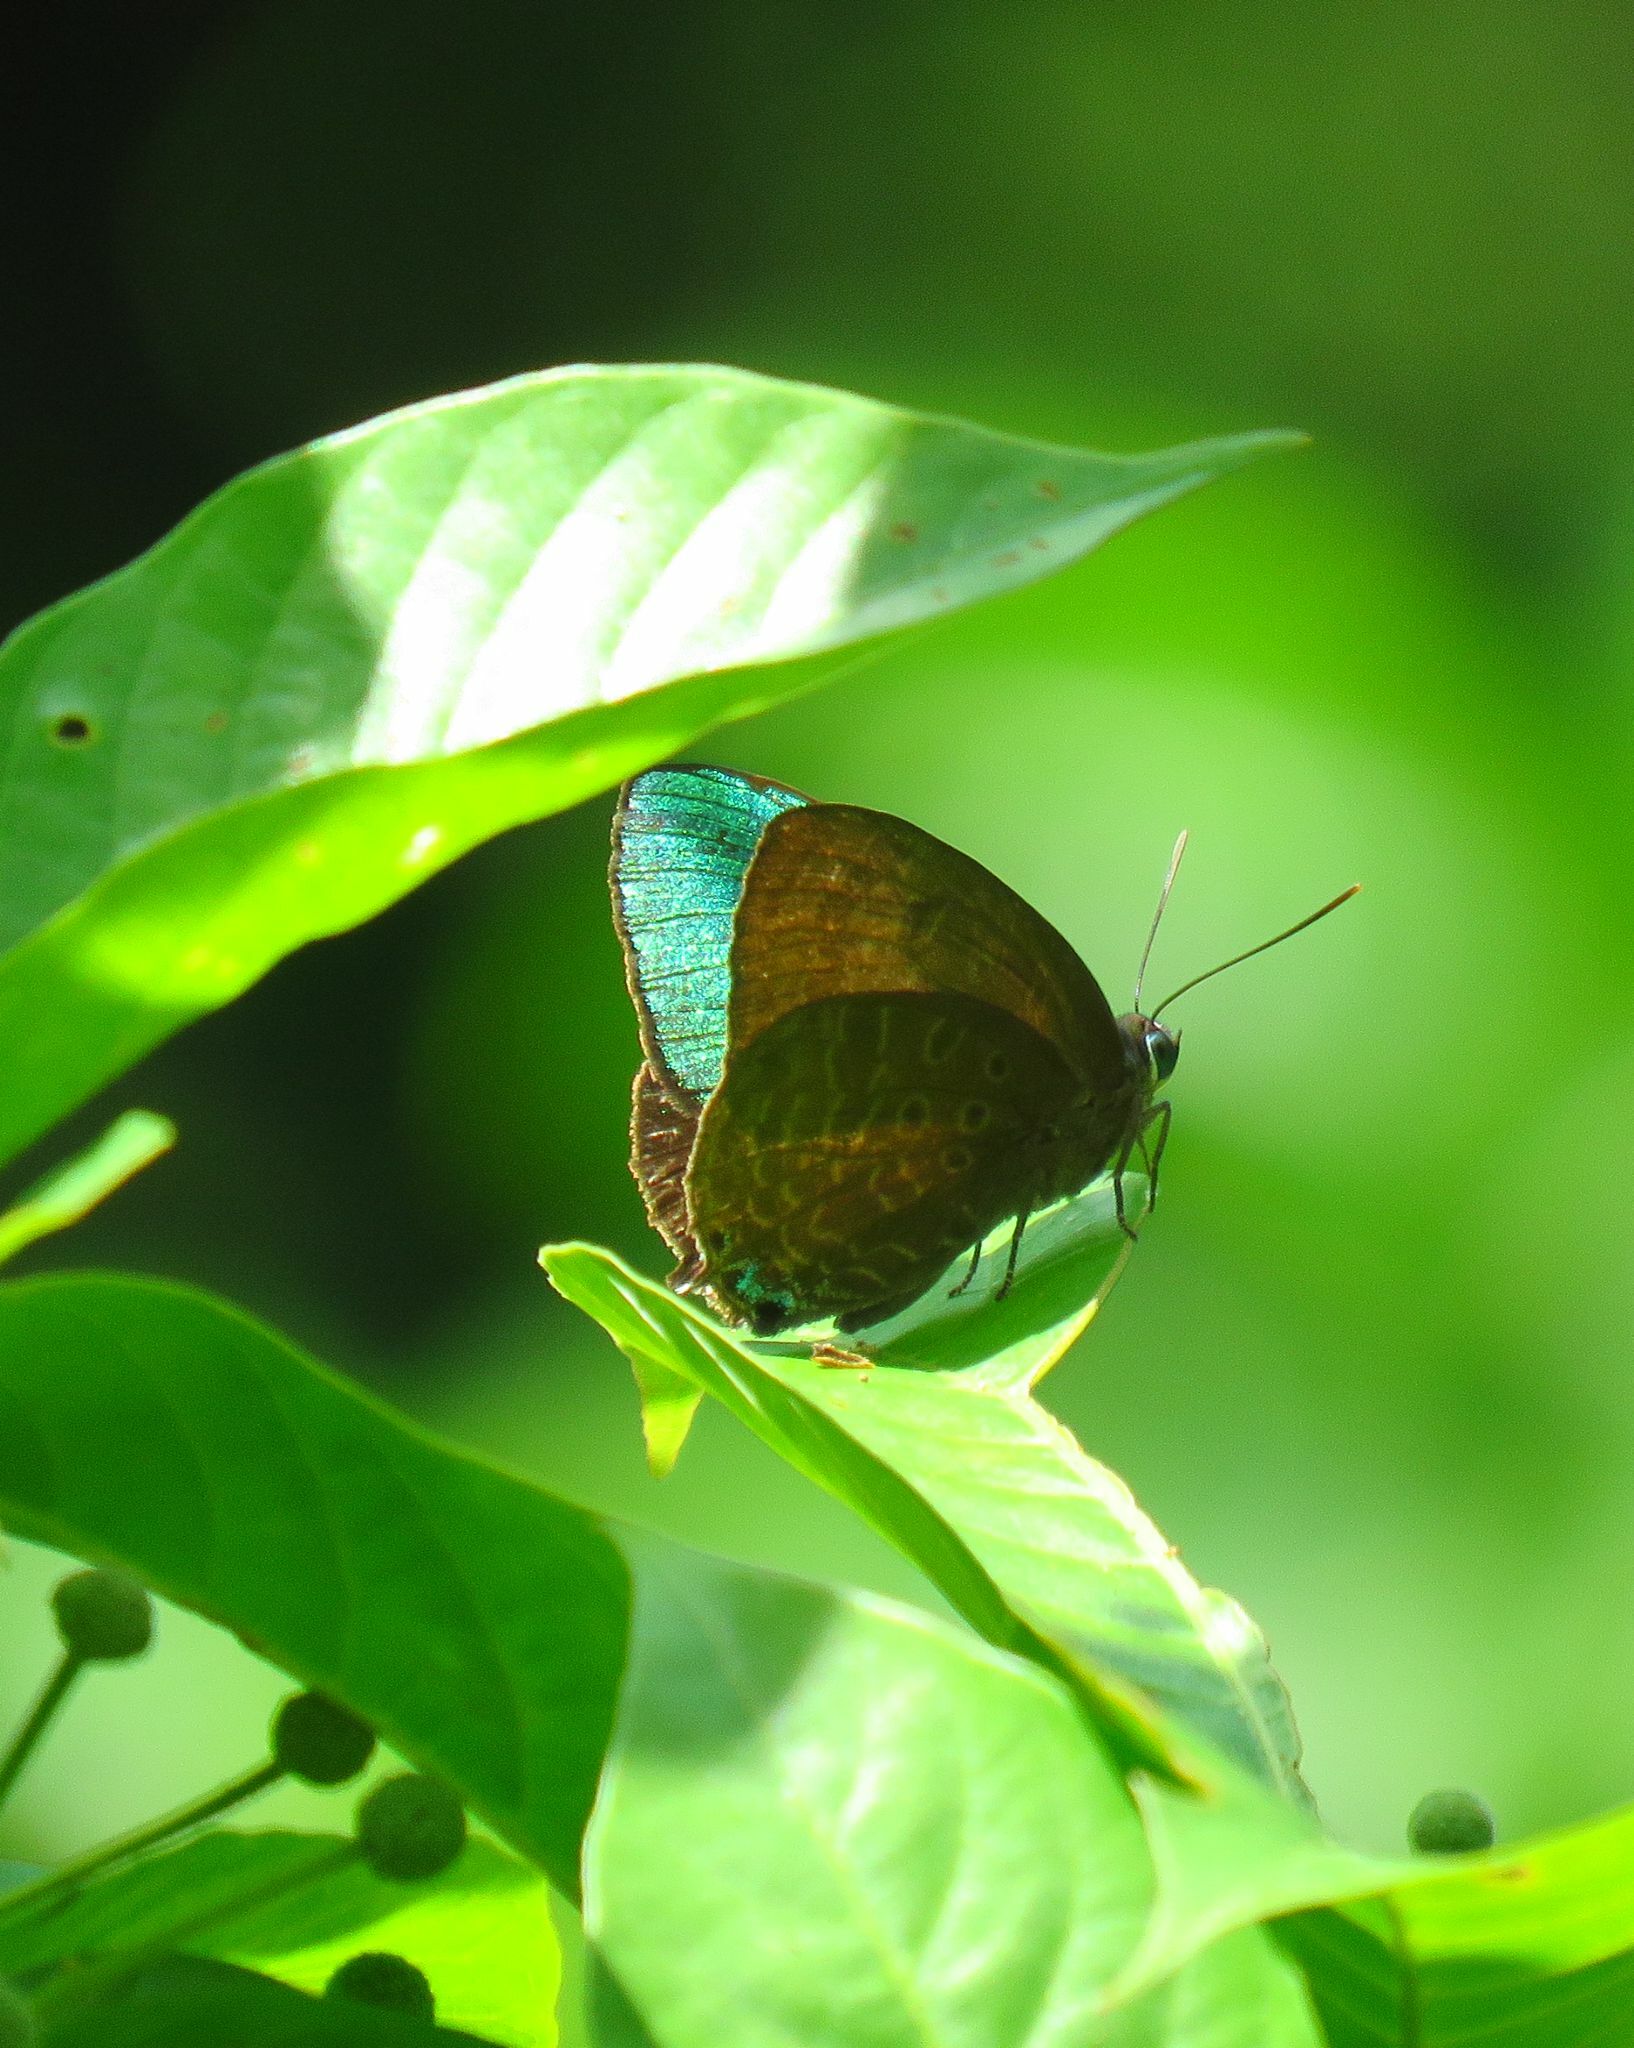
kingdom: Animalia
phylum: Arthropoda
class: Insecta
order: Lepidoptera
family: Lycaenidae
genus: Arhopala
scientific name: Arhopala aurea
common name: Long-celled oakblue
